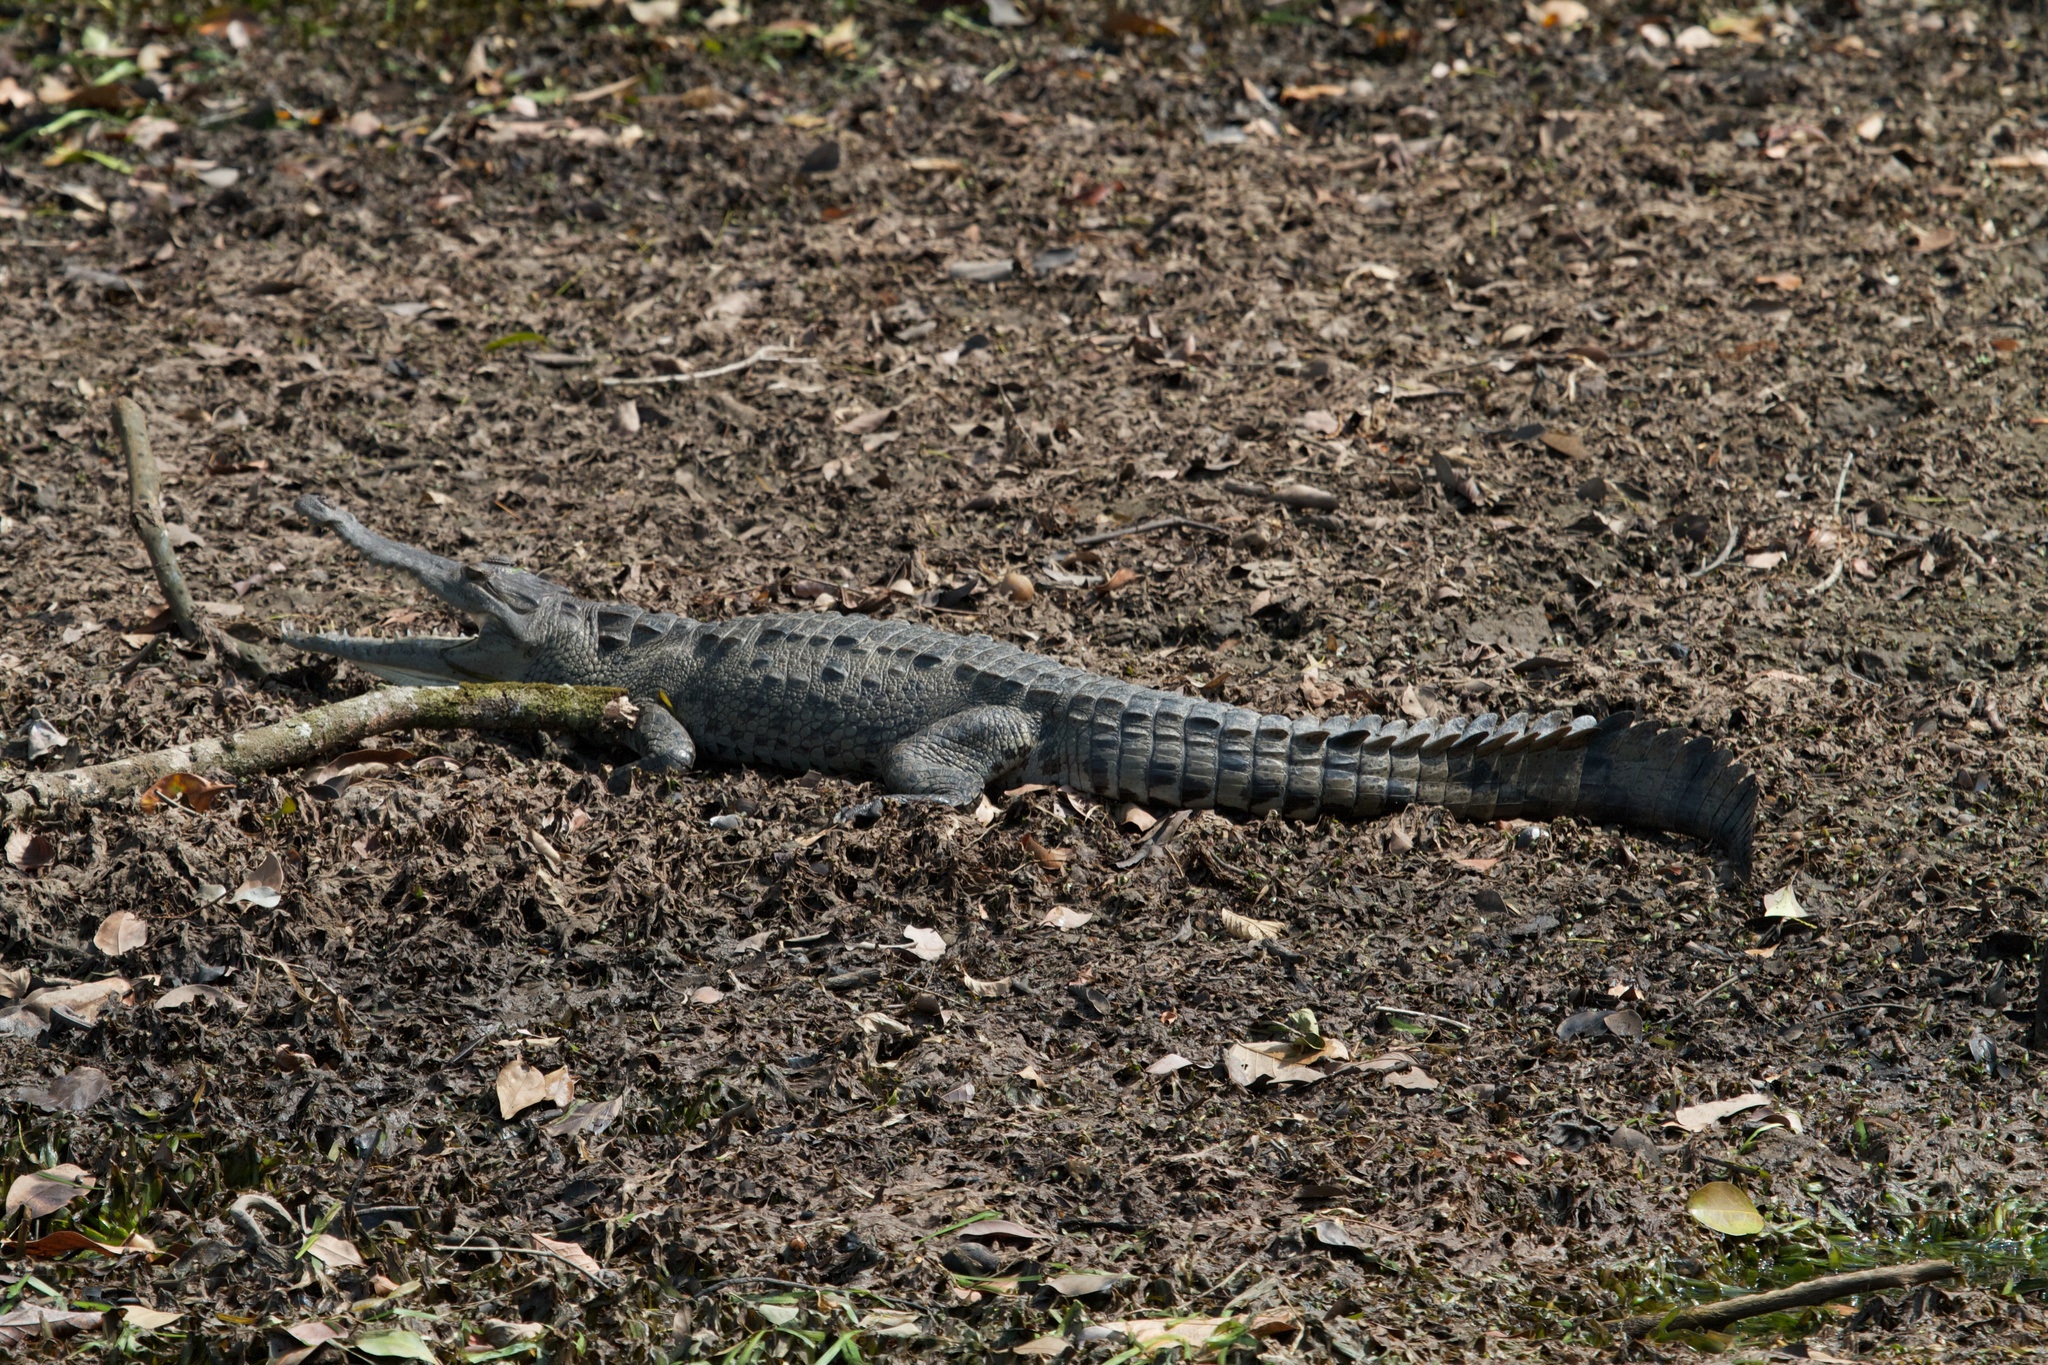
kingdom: Animalia
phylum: Chordata
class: Crocodylia
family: Crocodylidae
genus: Crocodylus
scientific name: Crocodylus acutus
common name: American crocodile
